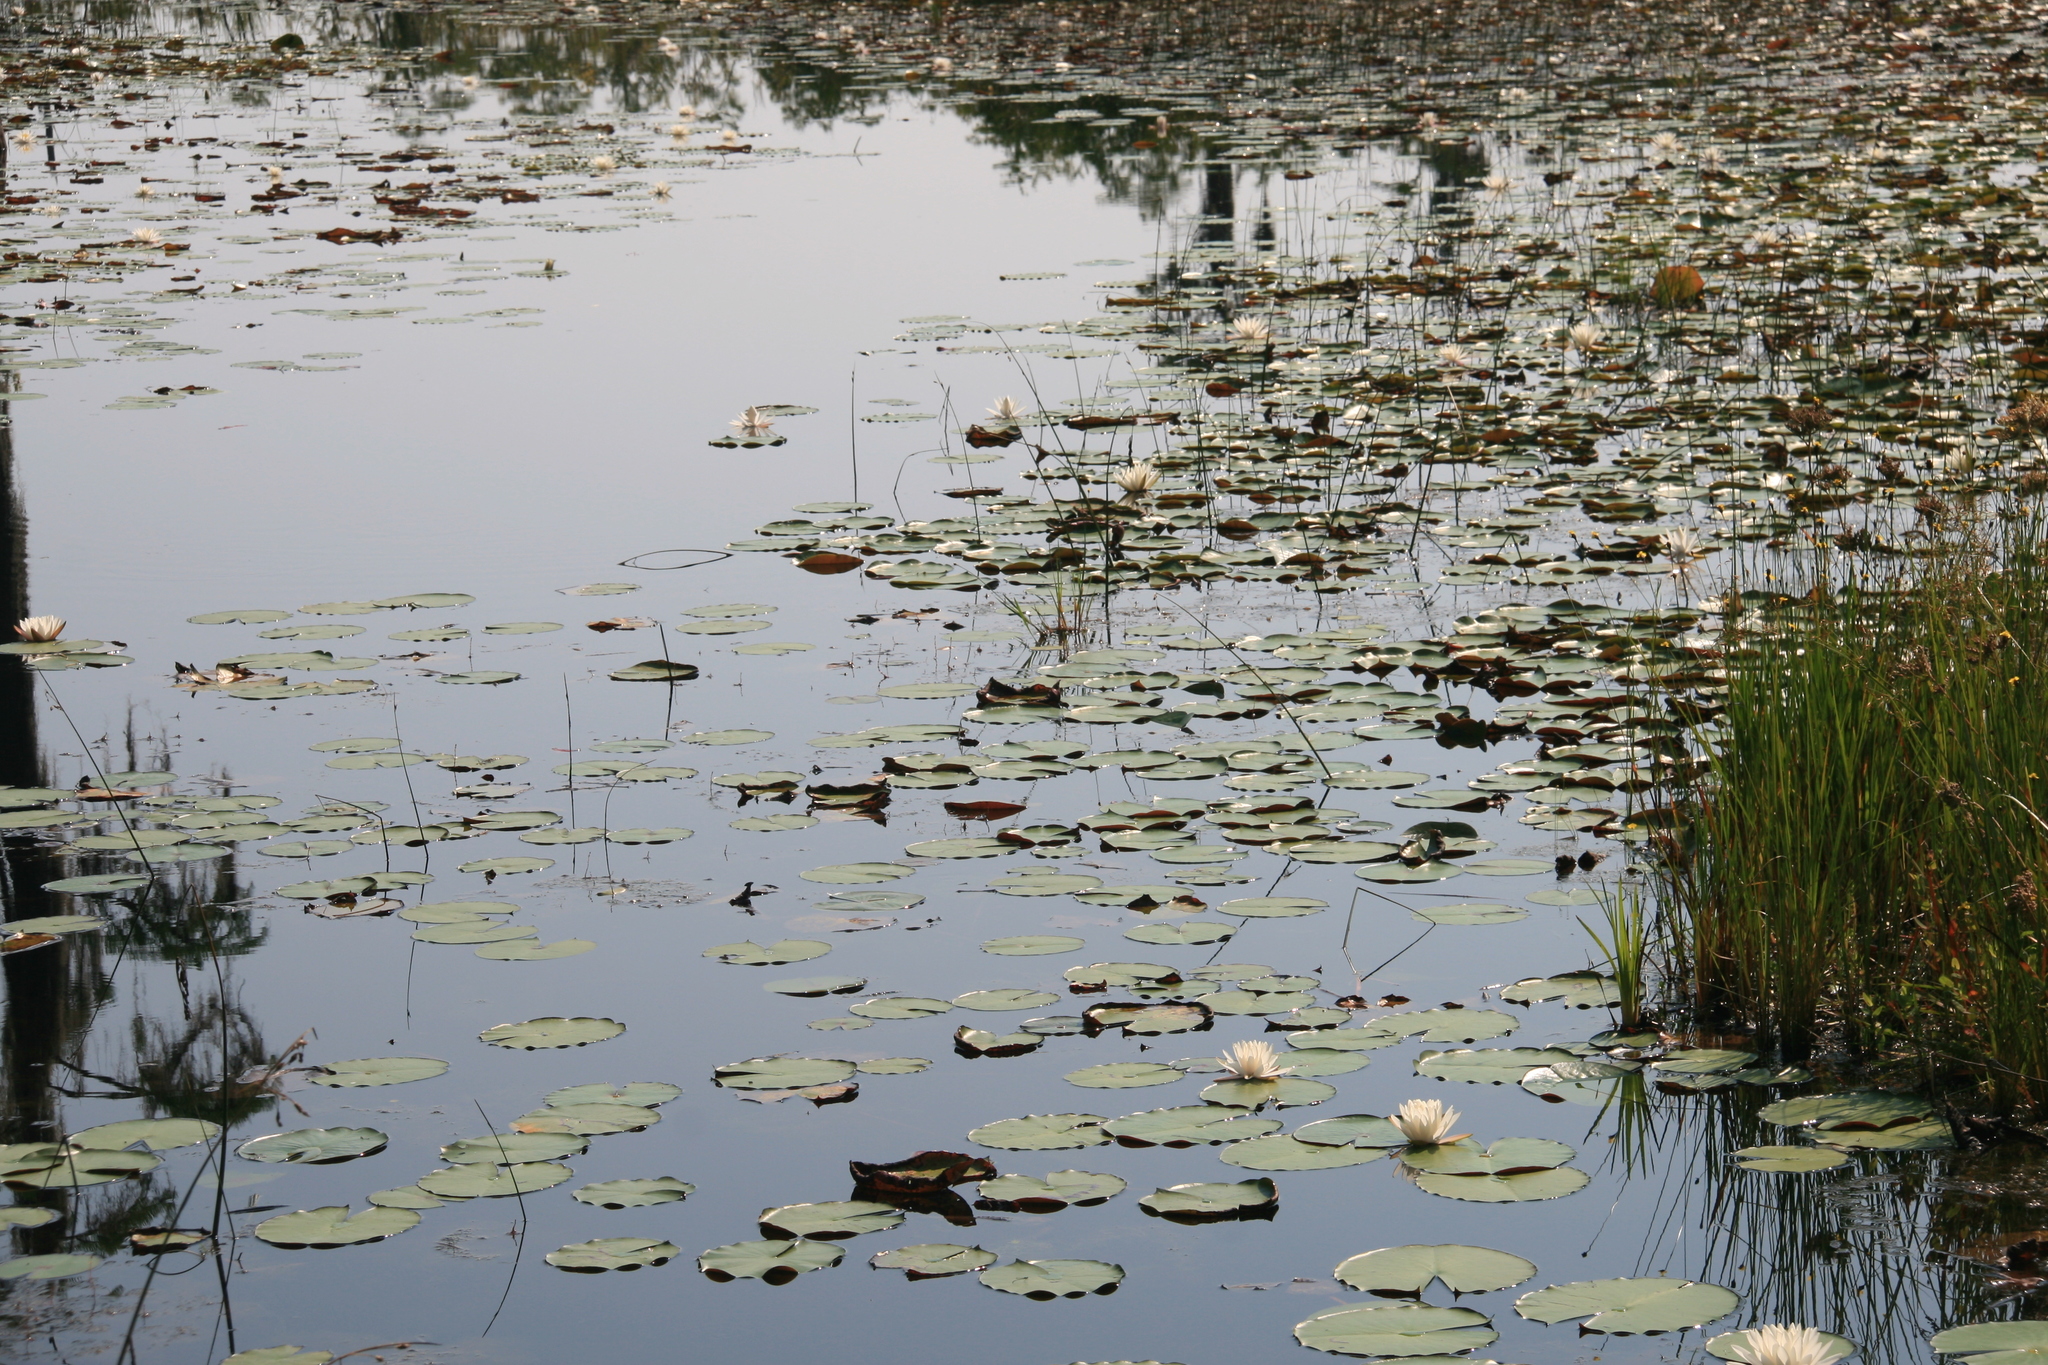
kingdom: Plantae
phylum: Tracheophyta
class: Liliopsida
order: Poales
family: Cyperaceae
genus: Schoenoplectus
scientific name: Schoenoplectus etuberculatus
